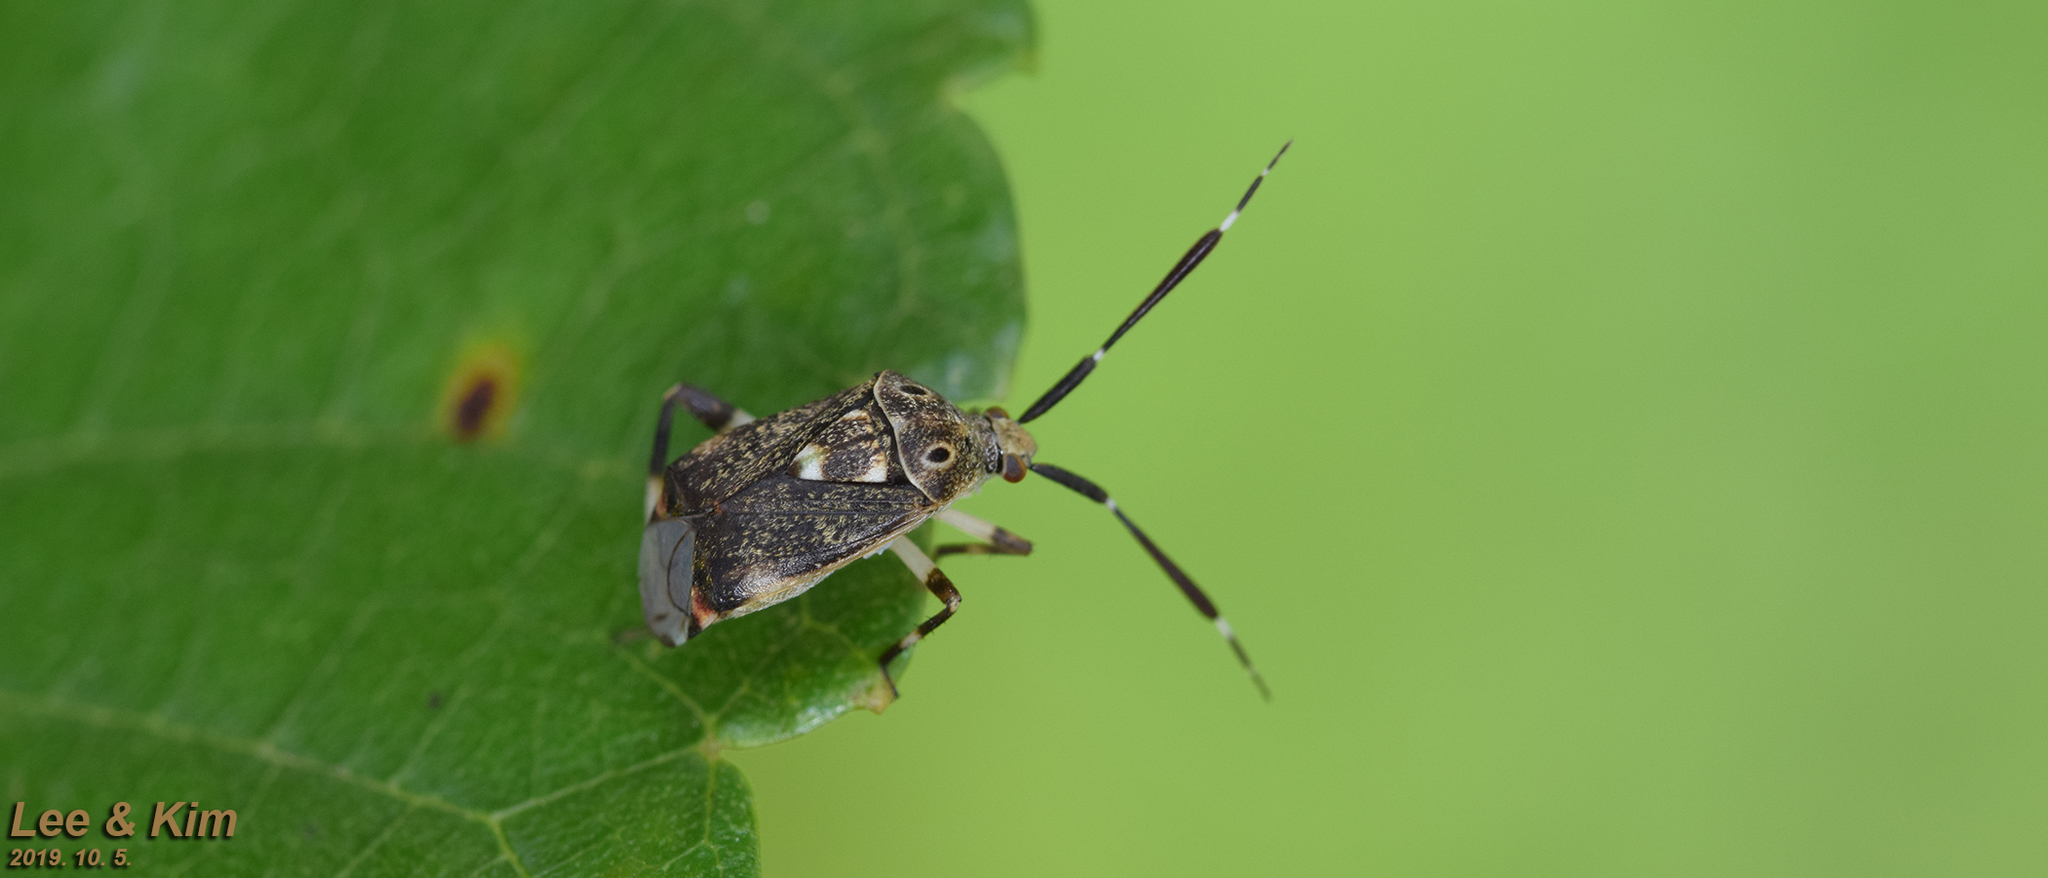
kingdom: Animalia
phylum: Arthropoda
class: Insecta
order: Hemiptera
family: Miridae
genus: Eurystylus
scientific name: Eurystylus coelestialium
